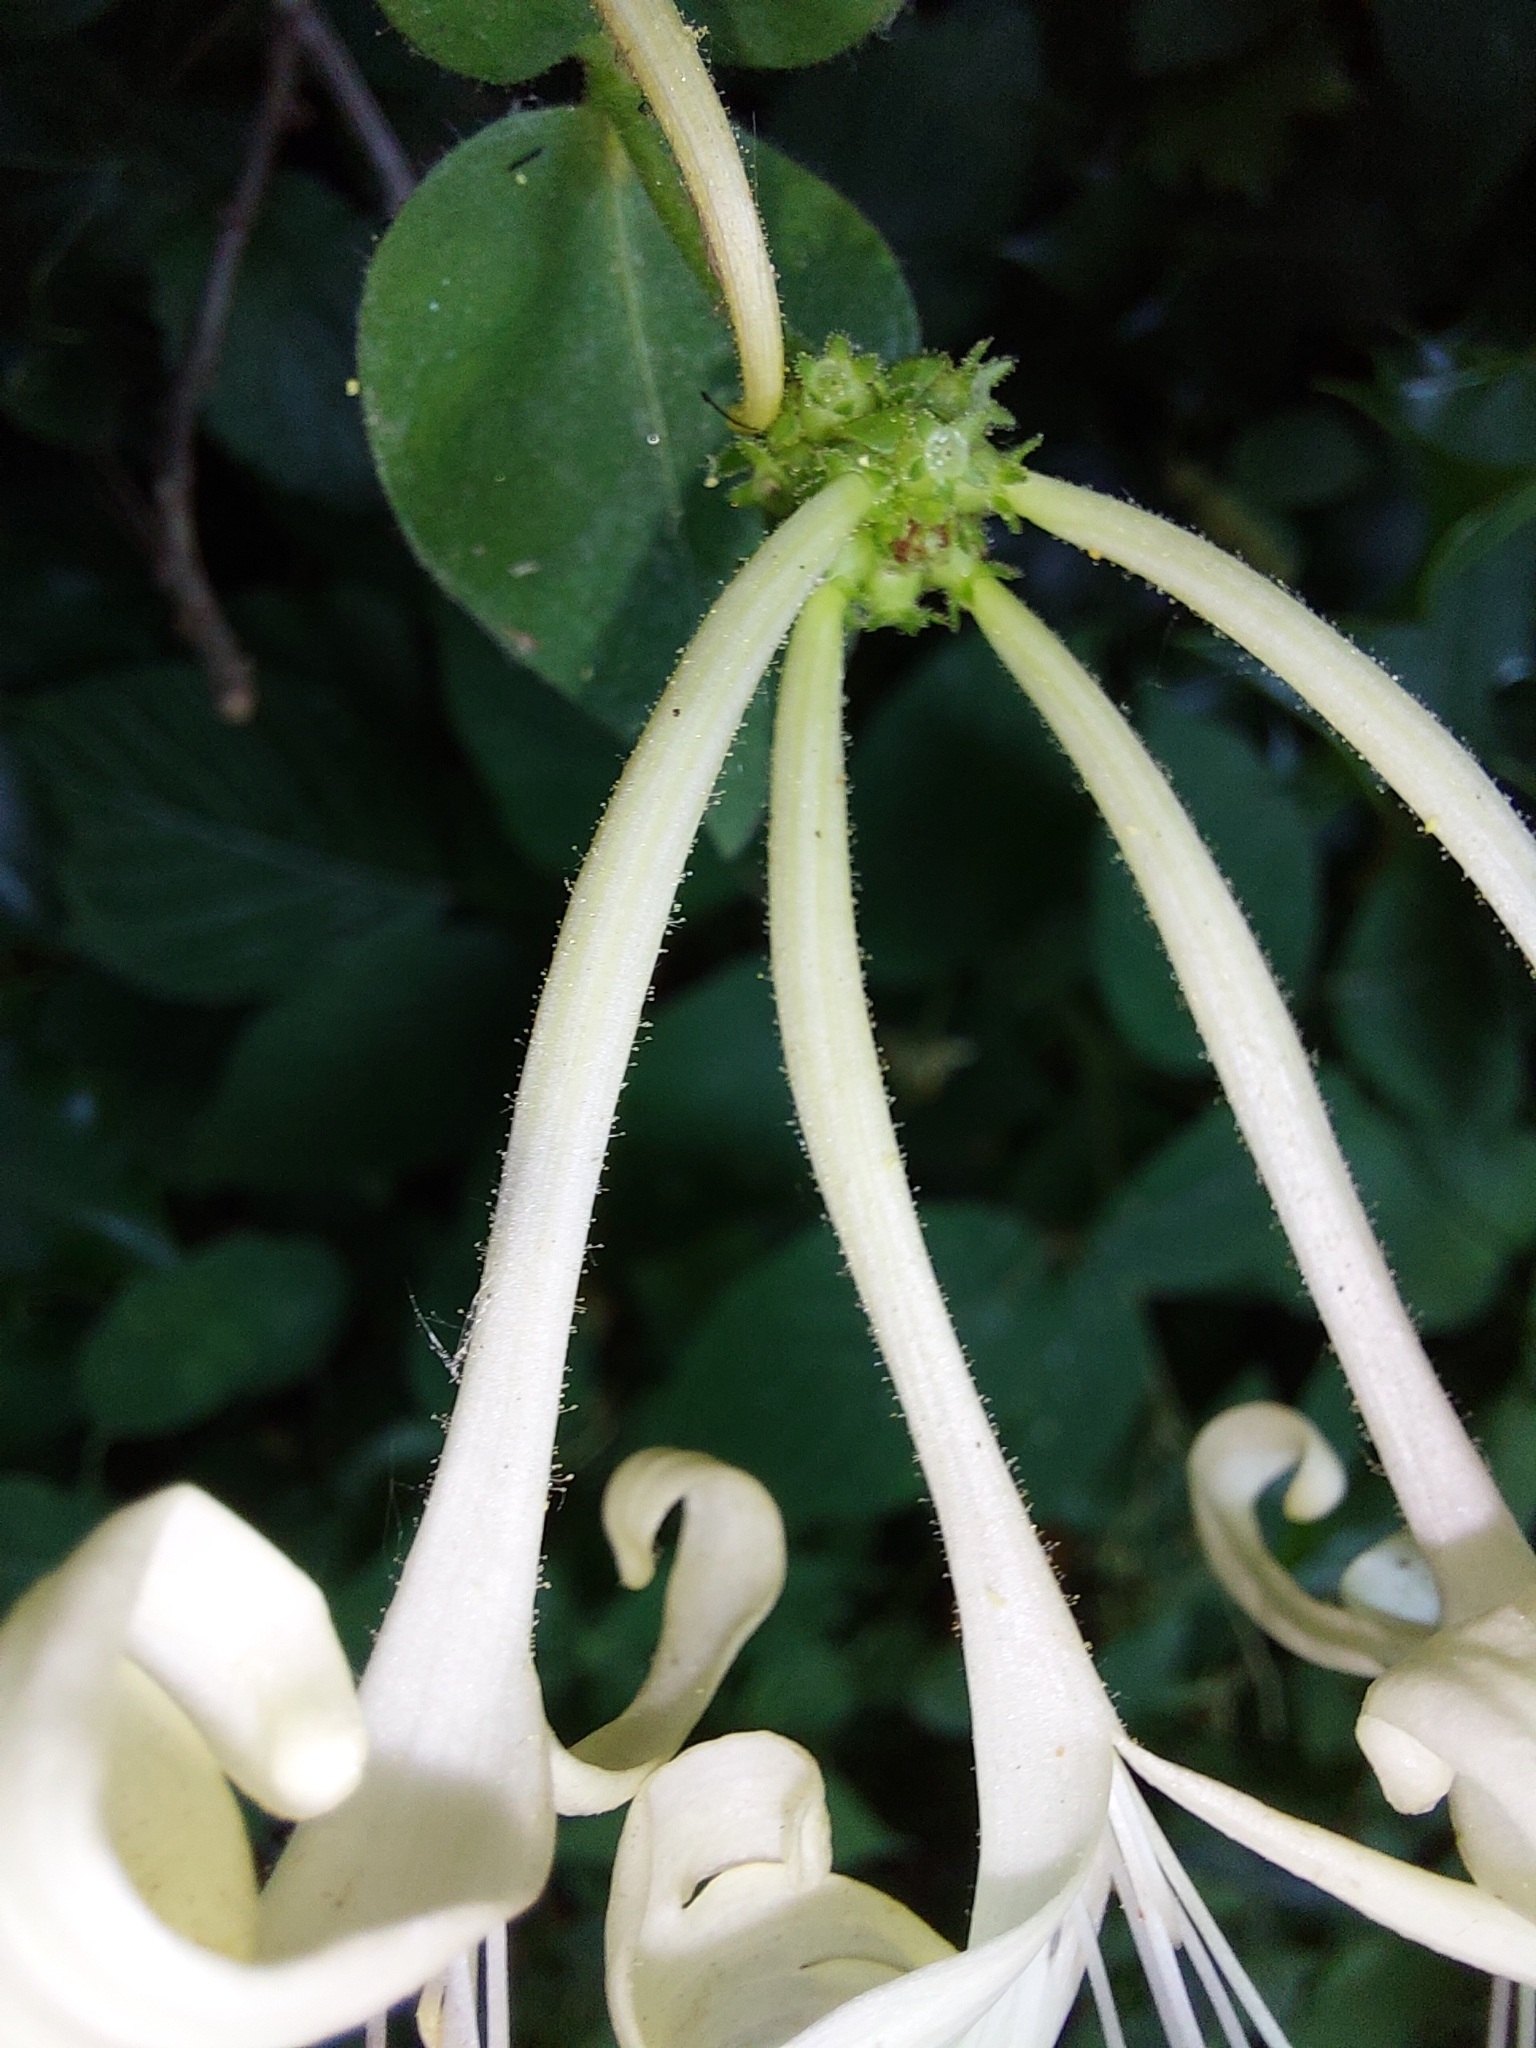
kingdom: Plantae
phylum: Tracheophyta
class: Magnoliopsida
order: Dipsacales
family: Caprifoliaceae
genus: Lonicera
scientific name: Lonicera periclymenum
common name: European honeysuckle
